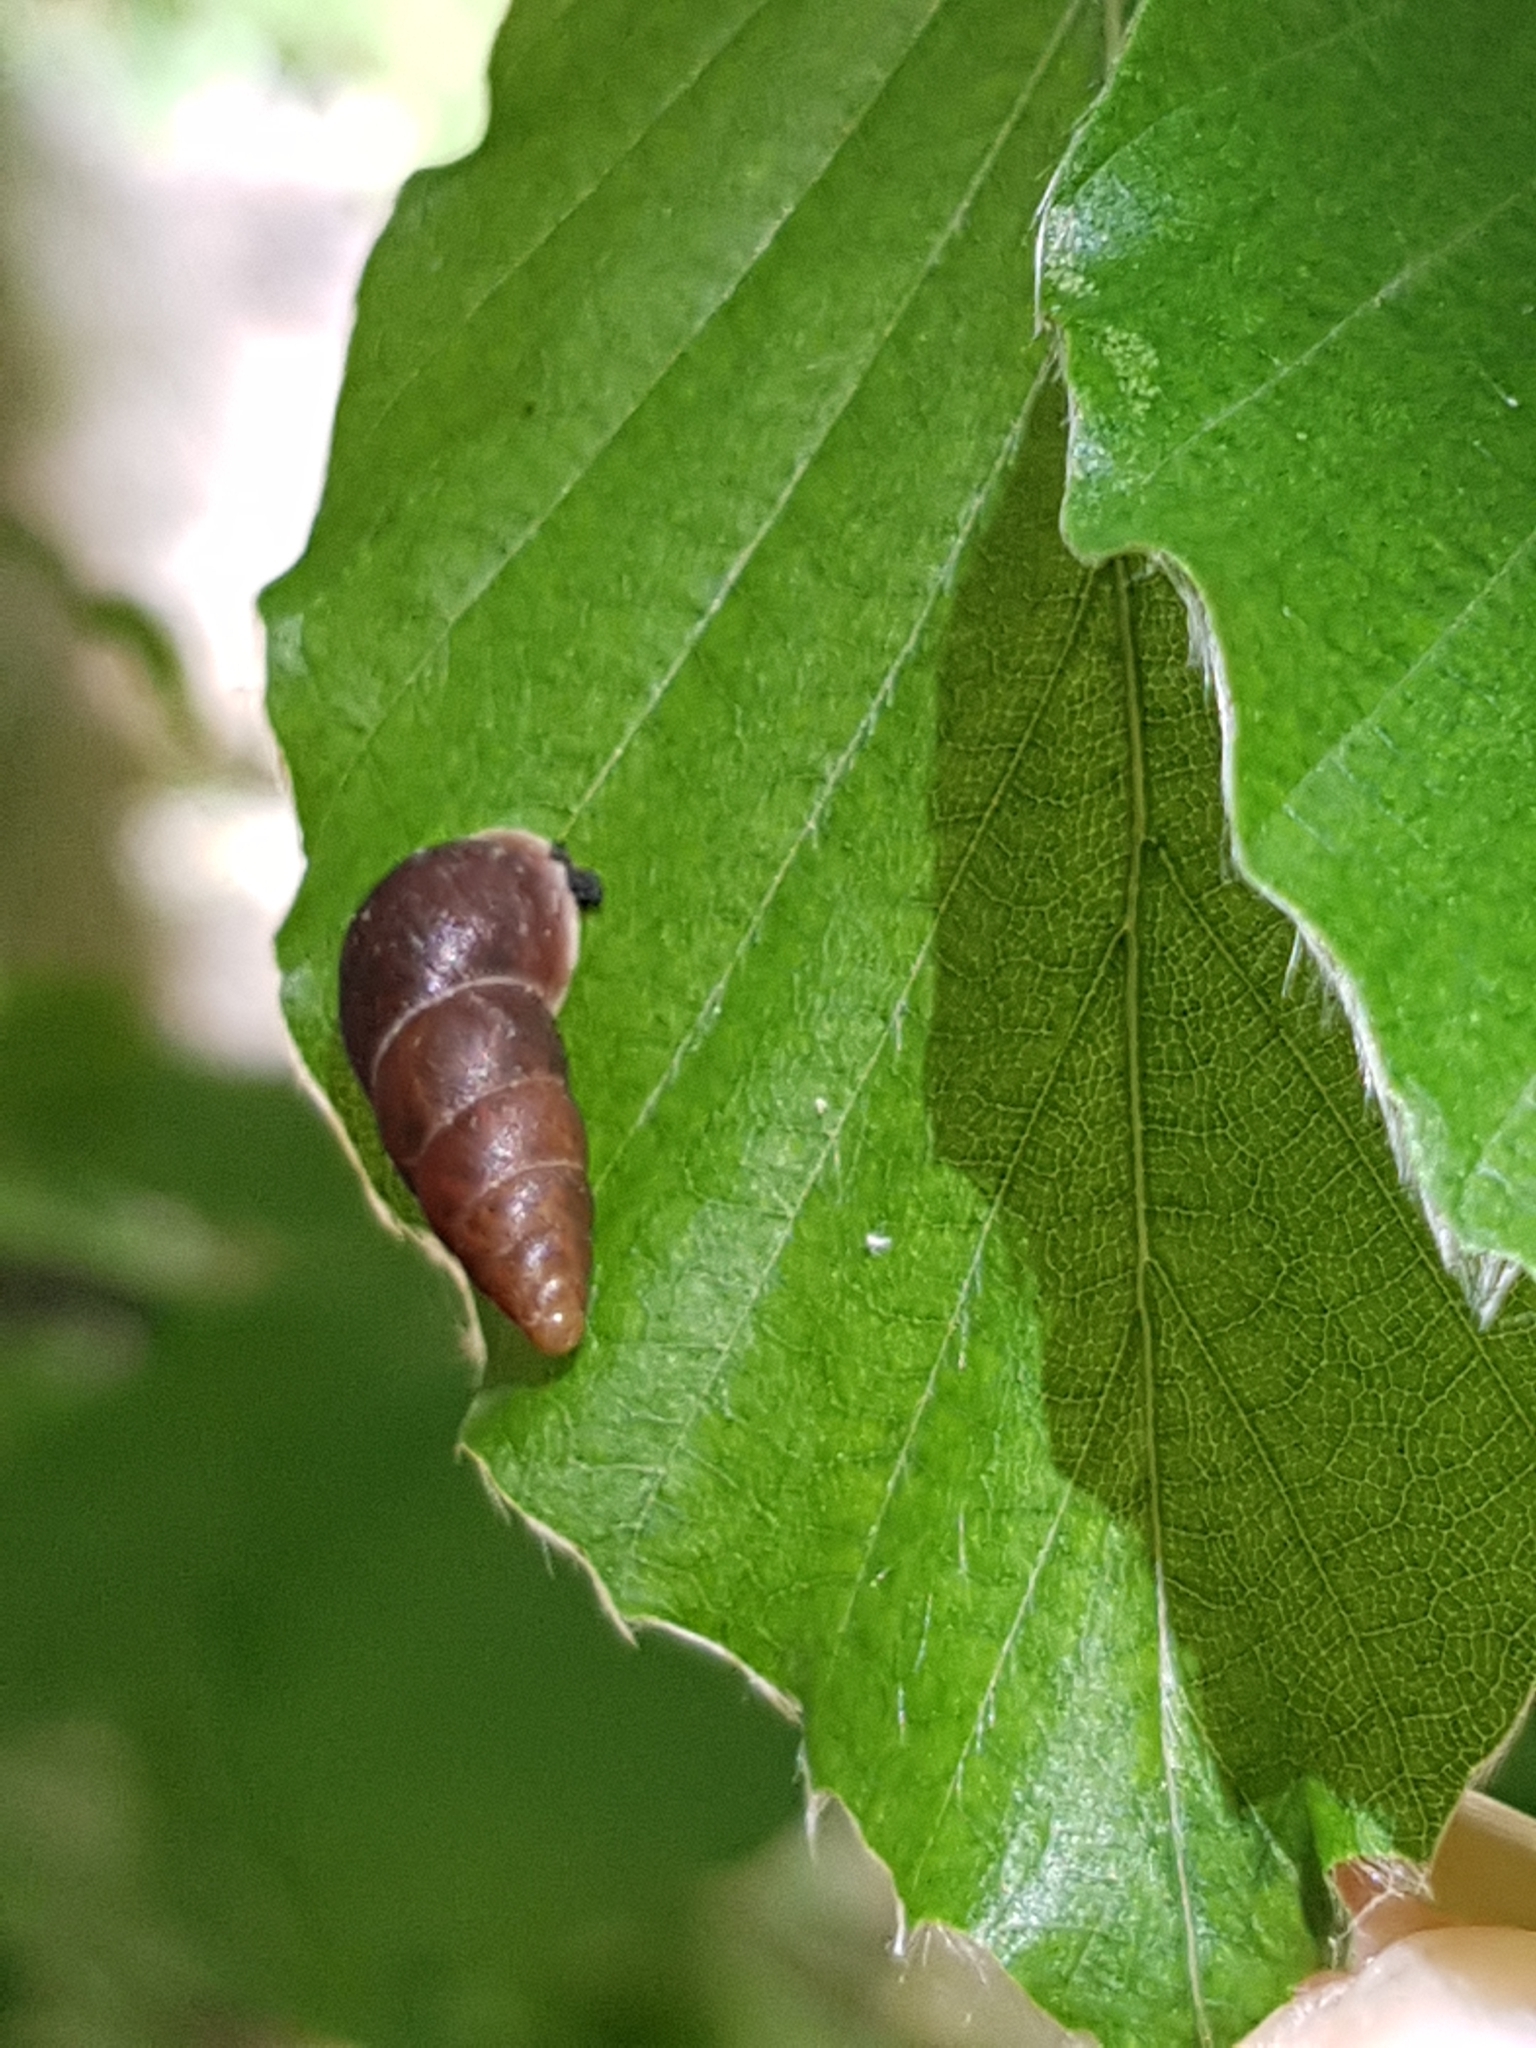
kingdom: Animalia
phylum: Mollusca
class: Gastropoda
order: Stylommatophora
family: Enidae
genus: Ena
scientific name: Ena montana
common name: Mountain bulin
